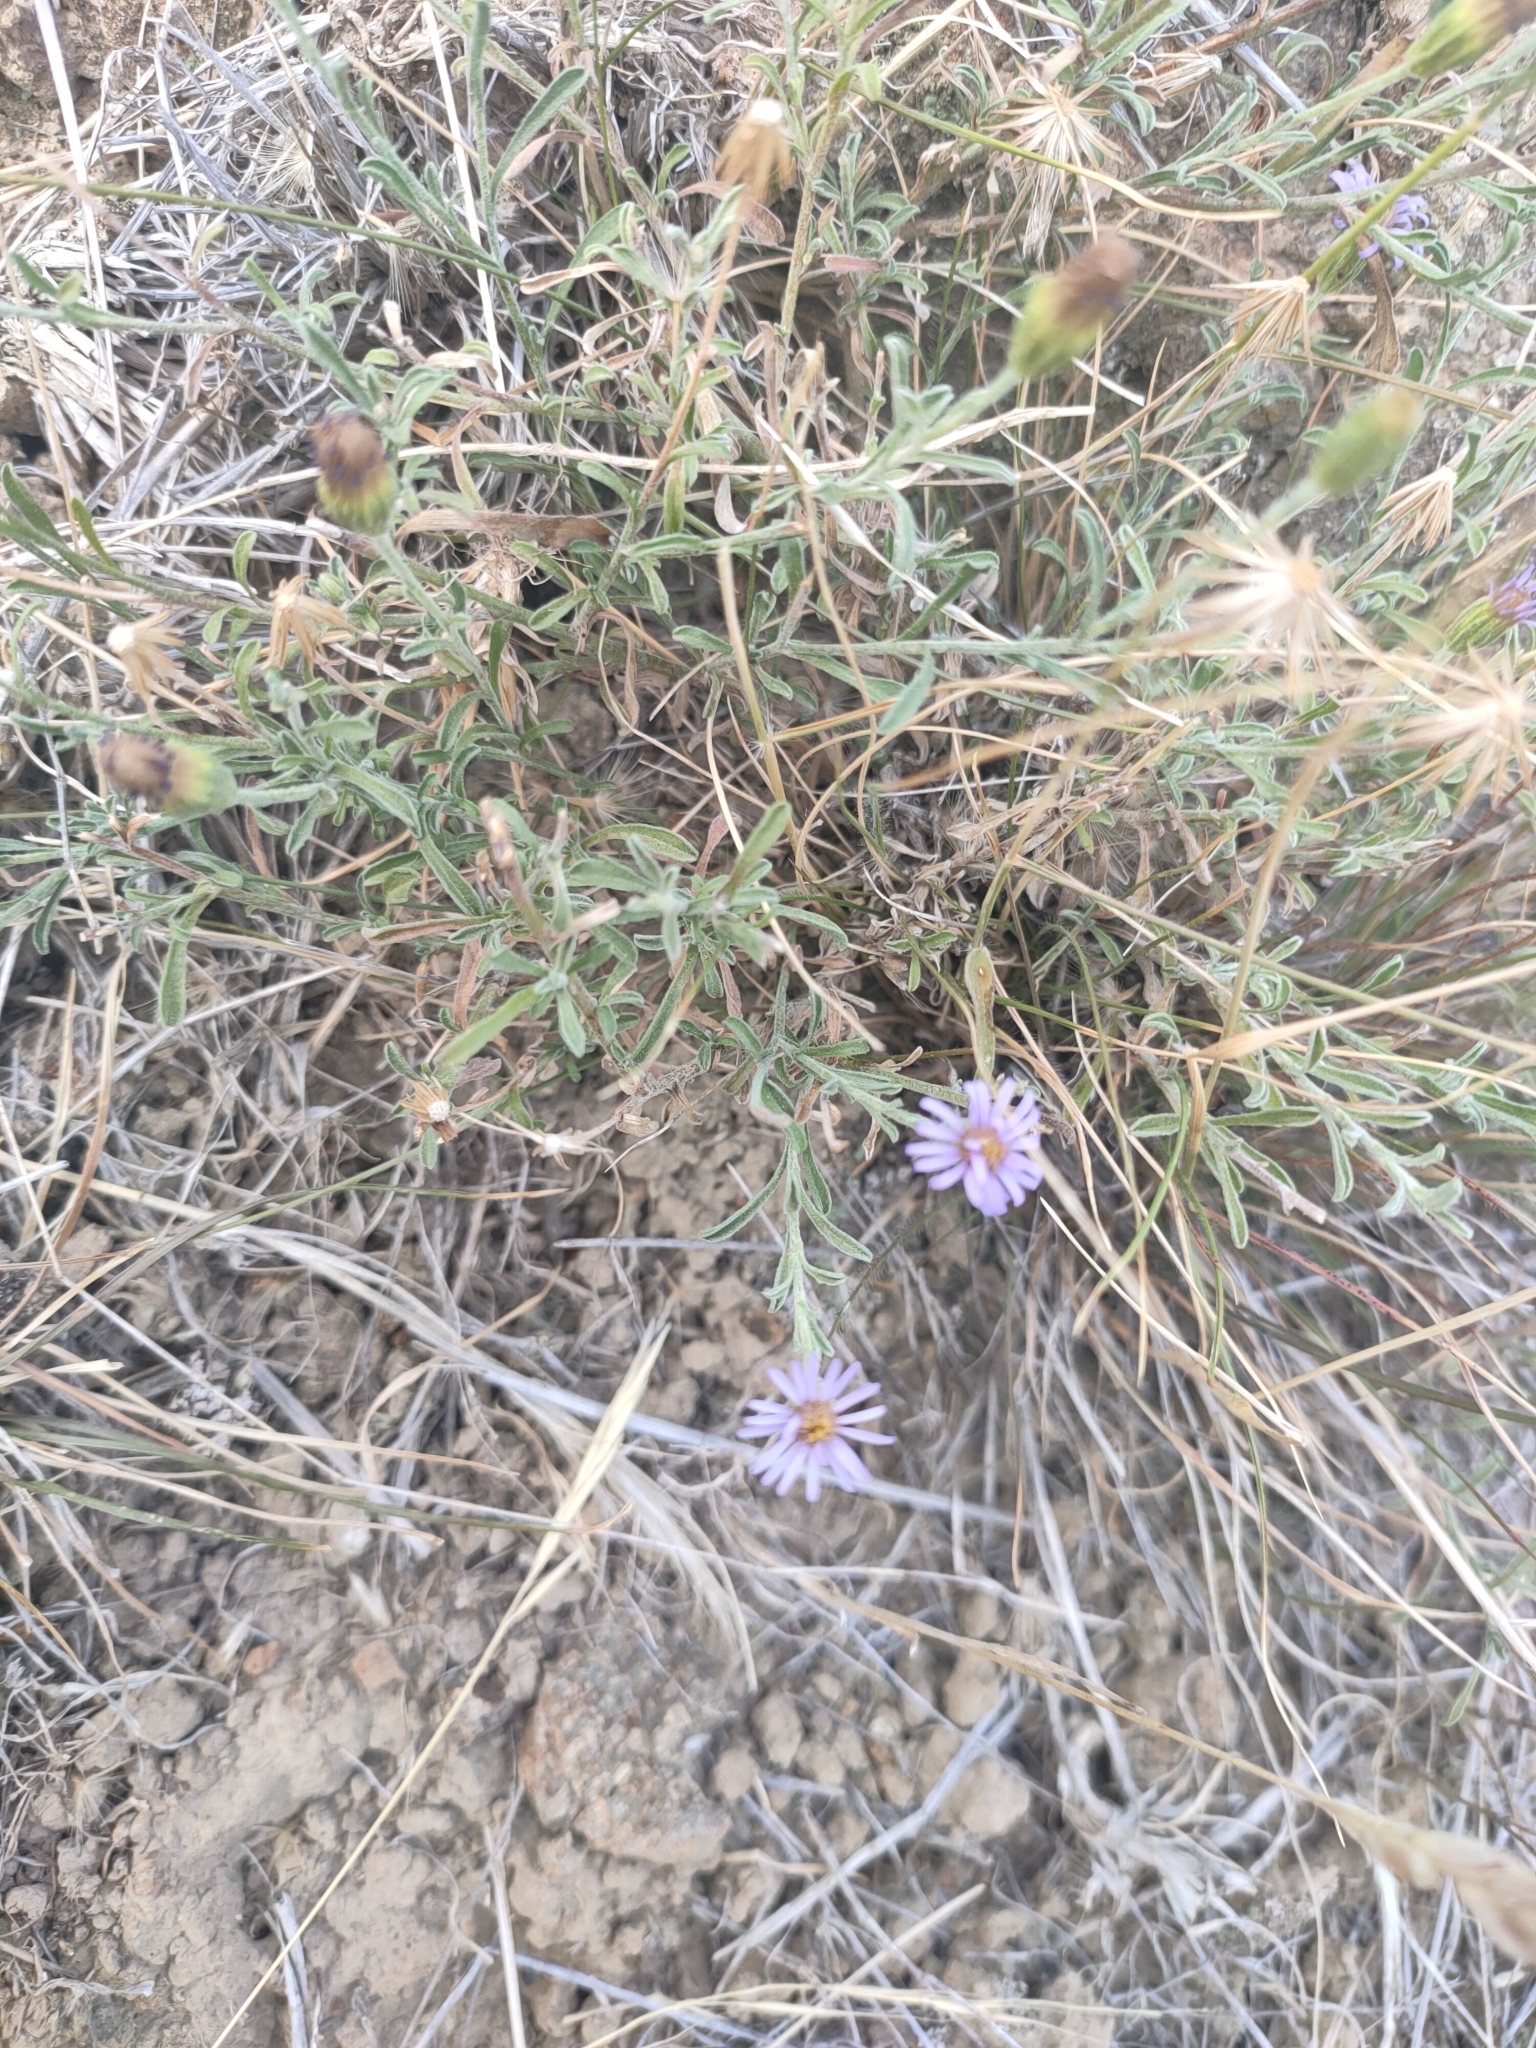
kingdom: Plantae
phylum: Tracheophyta
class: Magnoliopsida
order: Asterales
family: Asteraceae
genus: Vittadinia
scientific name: Vittadinia gracilis
